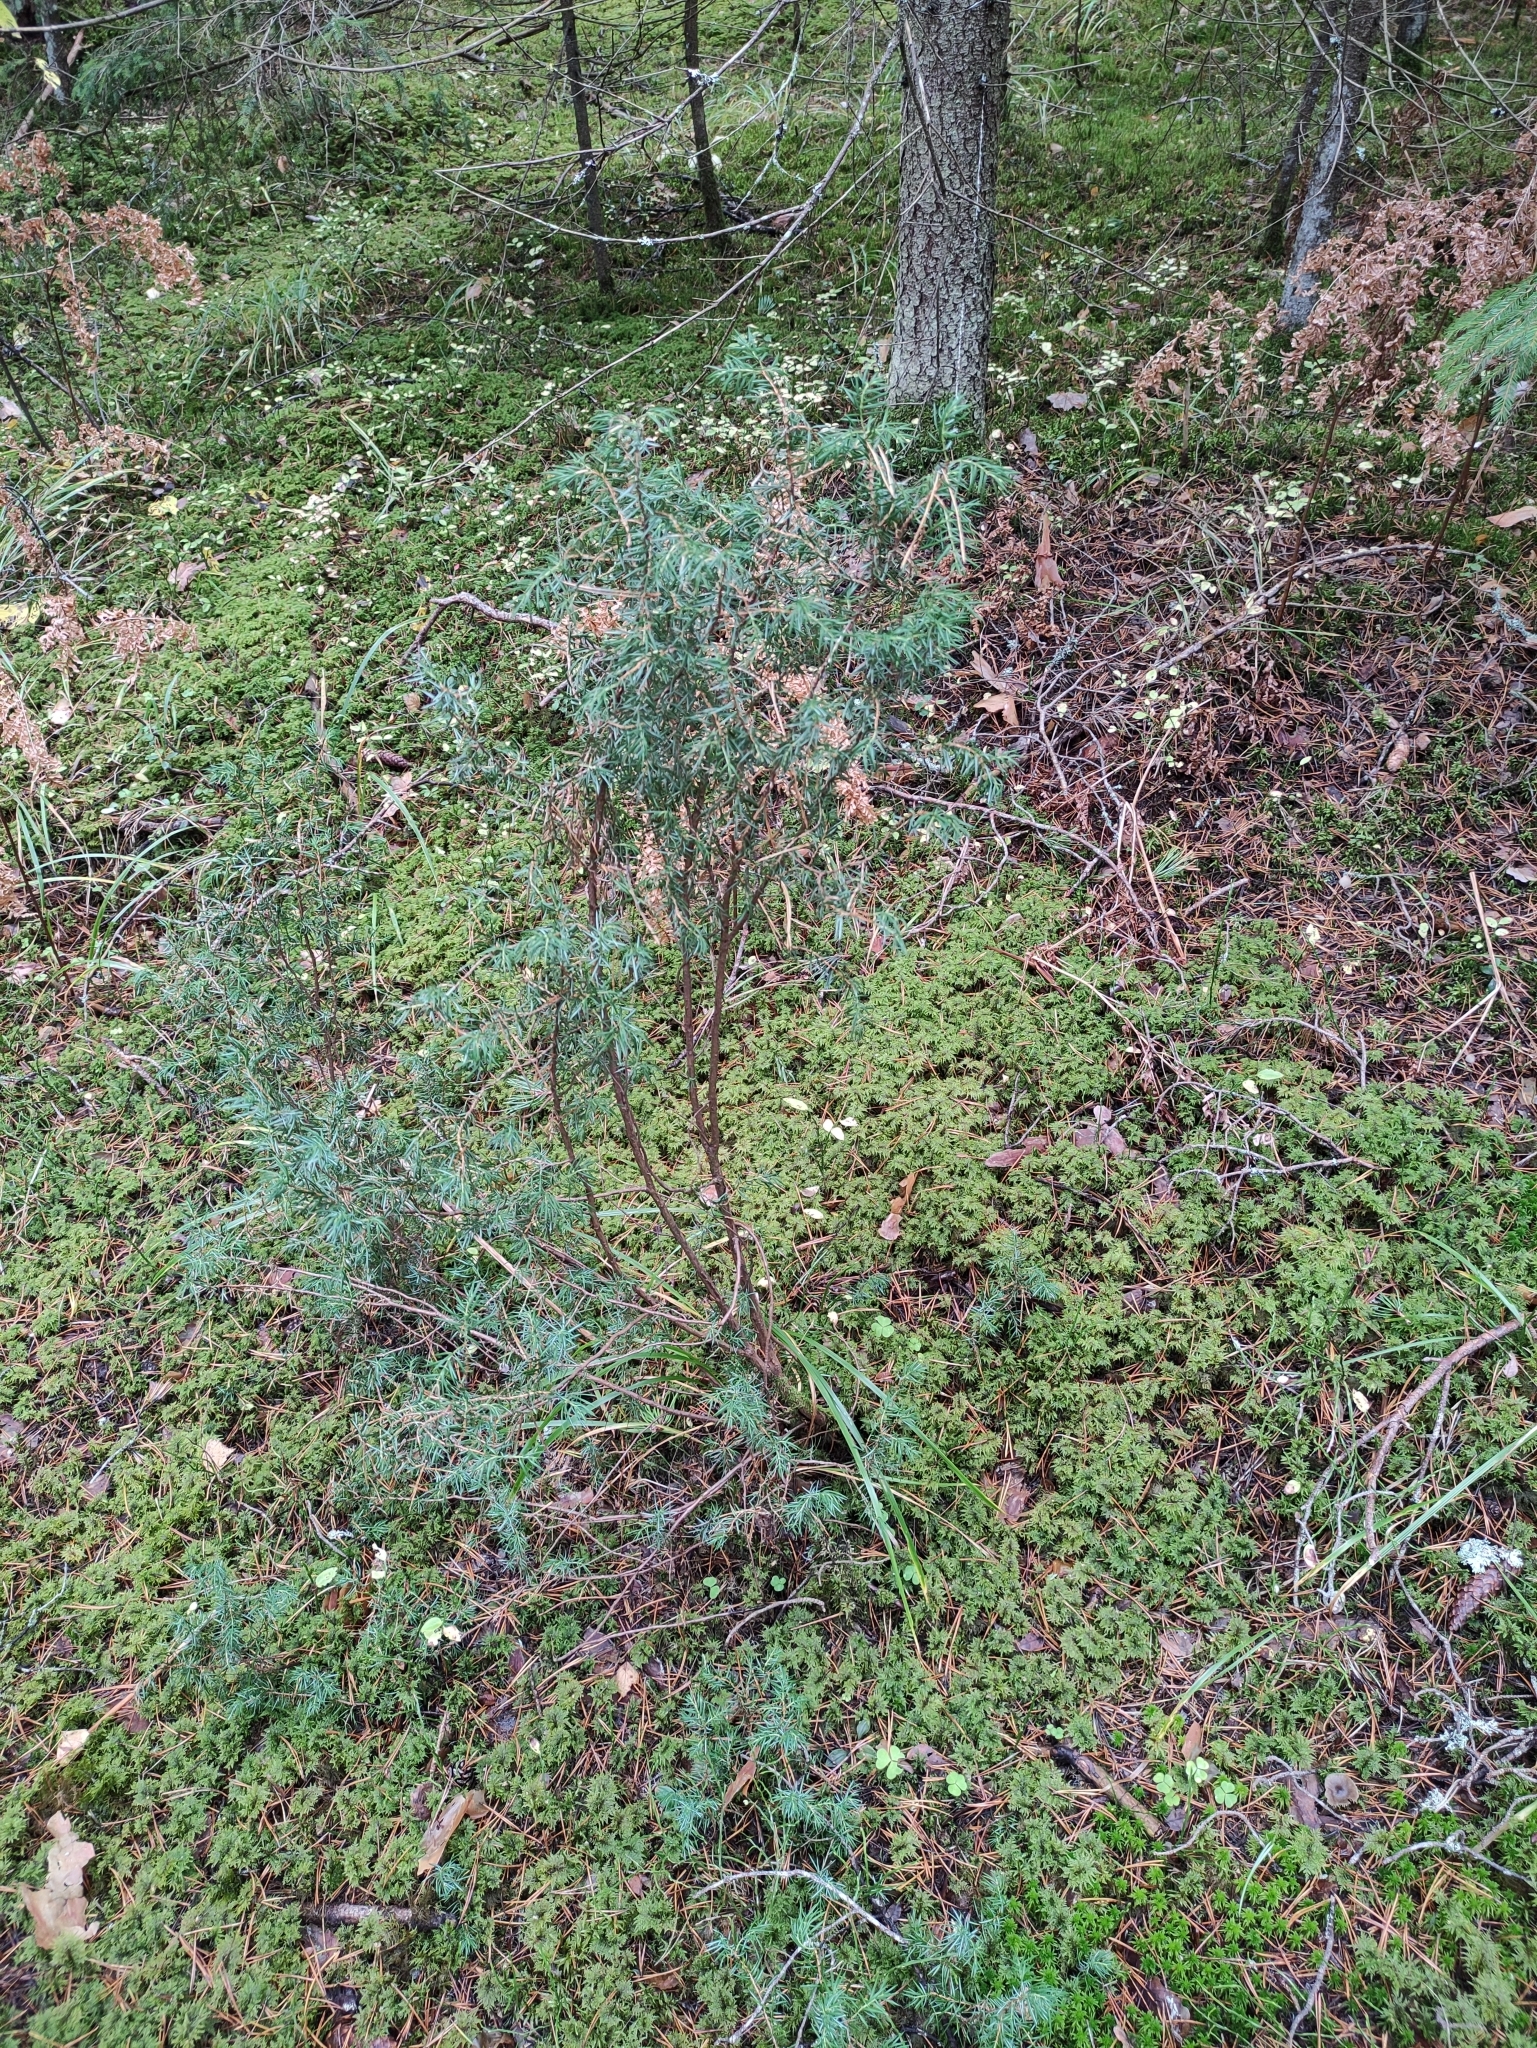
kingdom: Plantae
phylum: Tracheophyta
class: Pinopsida
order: Pinales
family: Cupressaceae
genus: Juniperus
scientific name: Juniperus communis
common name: Common juniper
